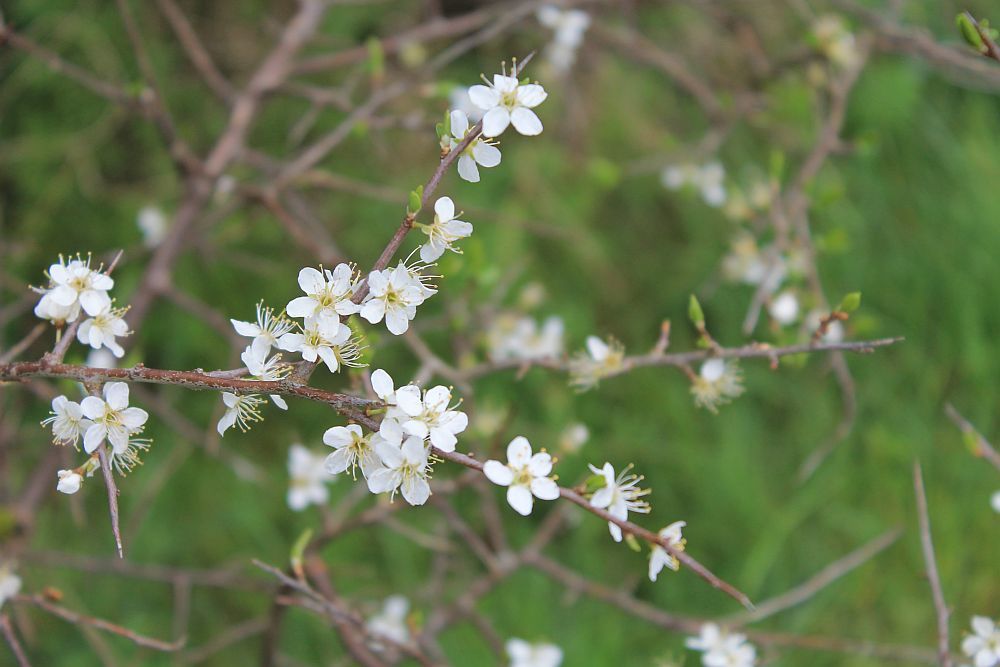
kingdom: Plantae
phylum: Tracheophyta
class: Magnoliopsida
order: Rosales
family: Rosaceae
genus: Prunus
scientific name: Prunus spinosa
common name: Blackthorn
